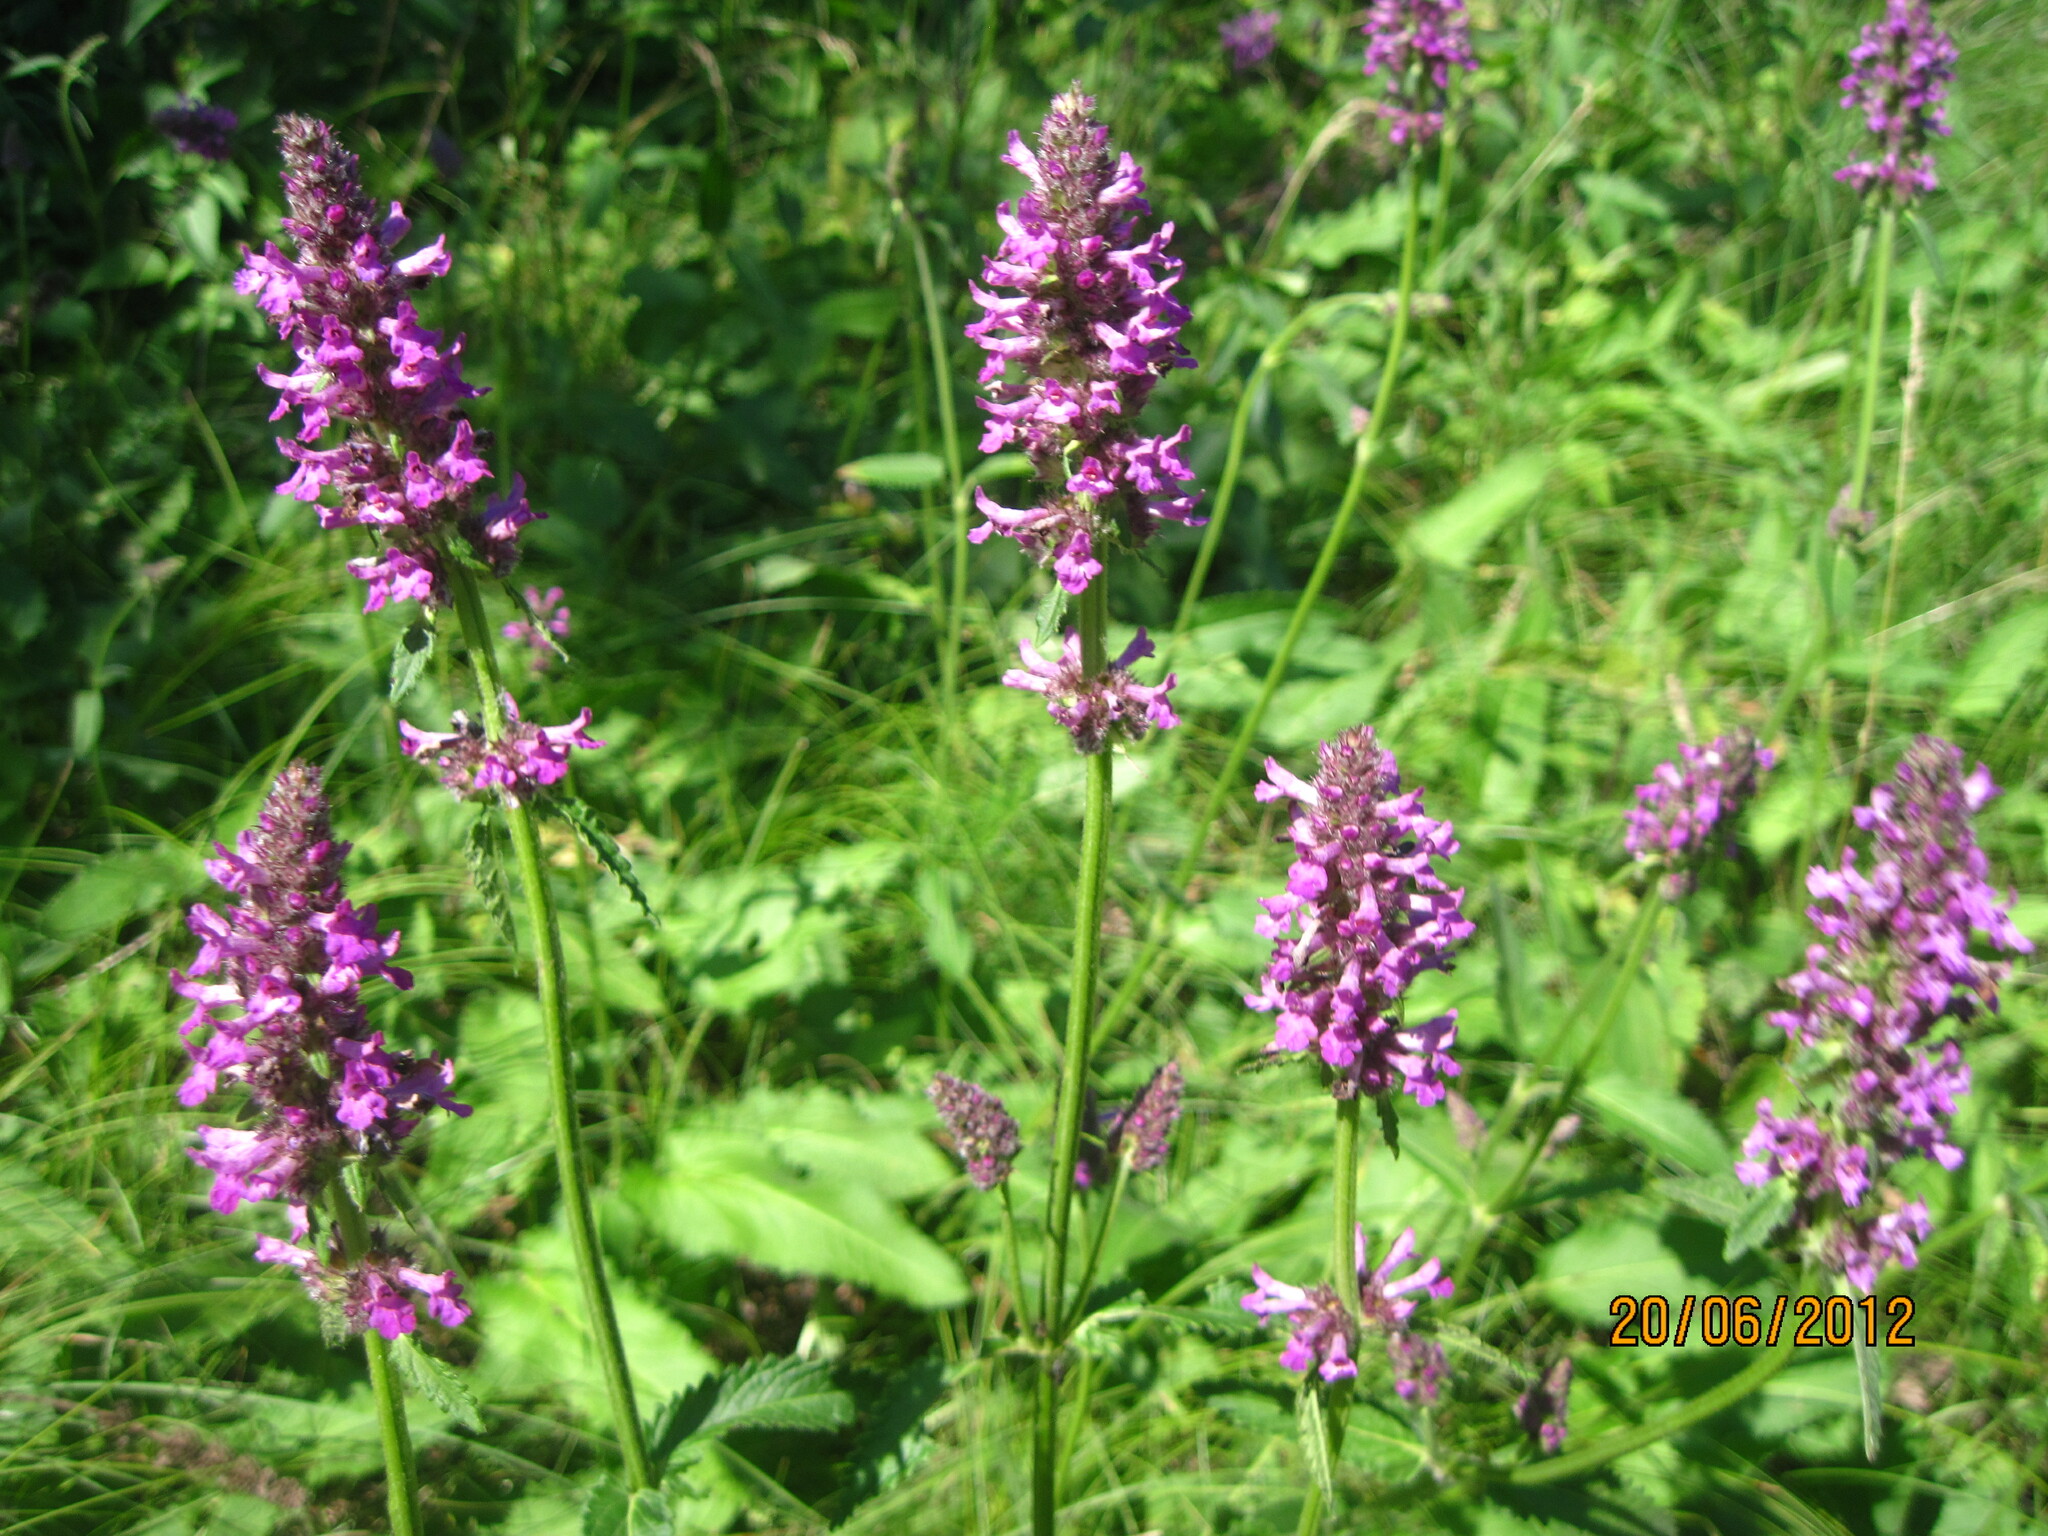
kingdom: Plantae
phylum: Tracheophyta
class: Magnoliopsida
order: Lamiales
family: Lamiaceae
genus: Betonica
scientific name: Betonica officinalis
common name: Bishop's-wort
